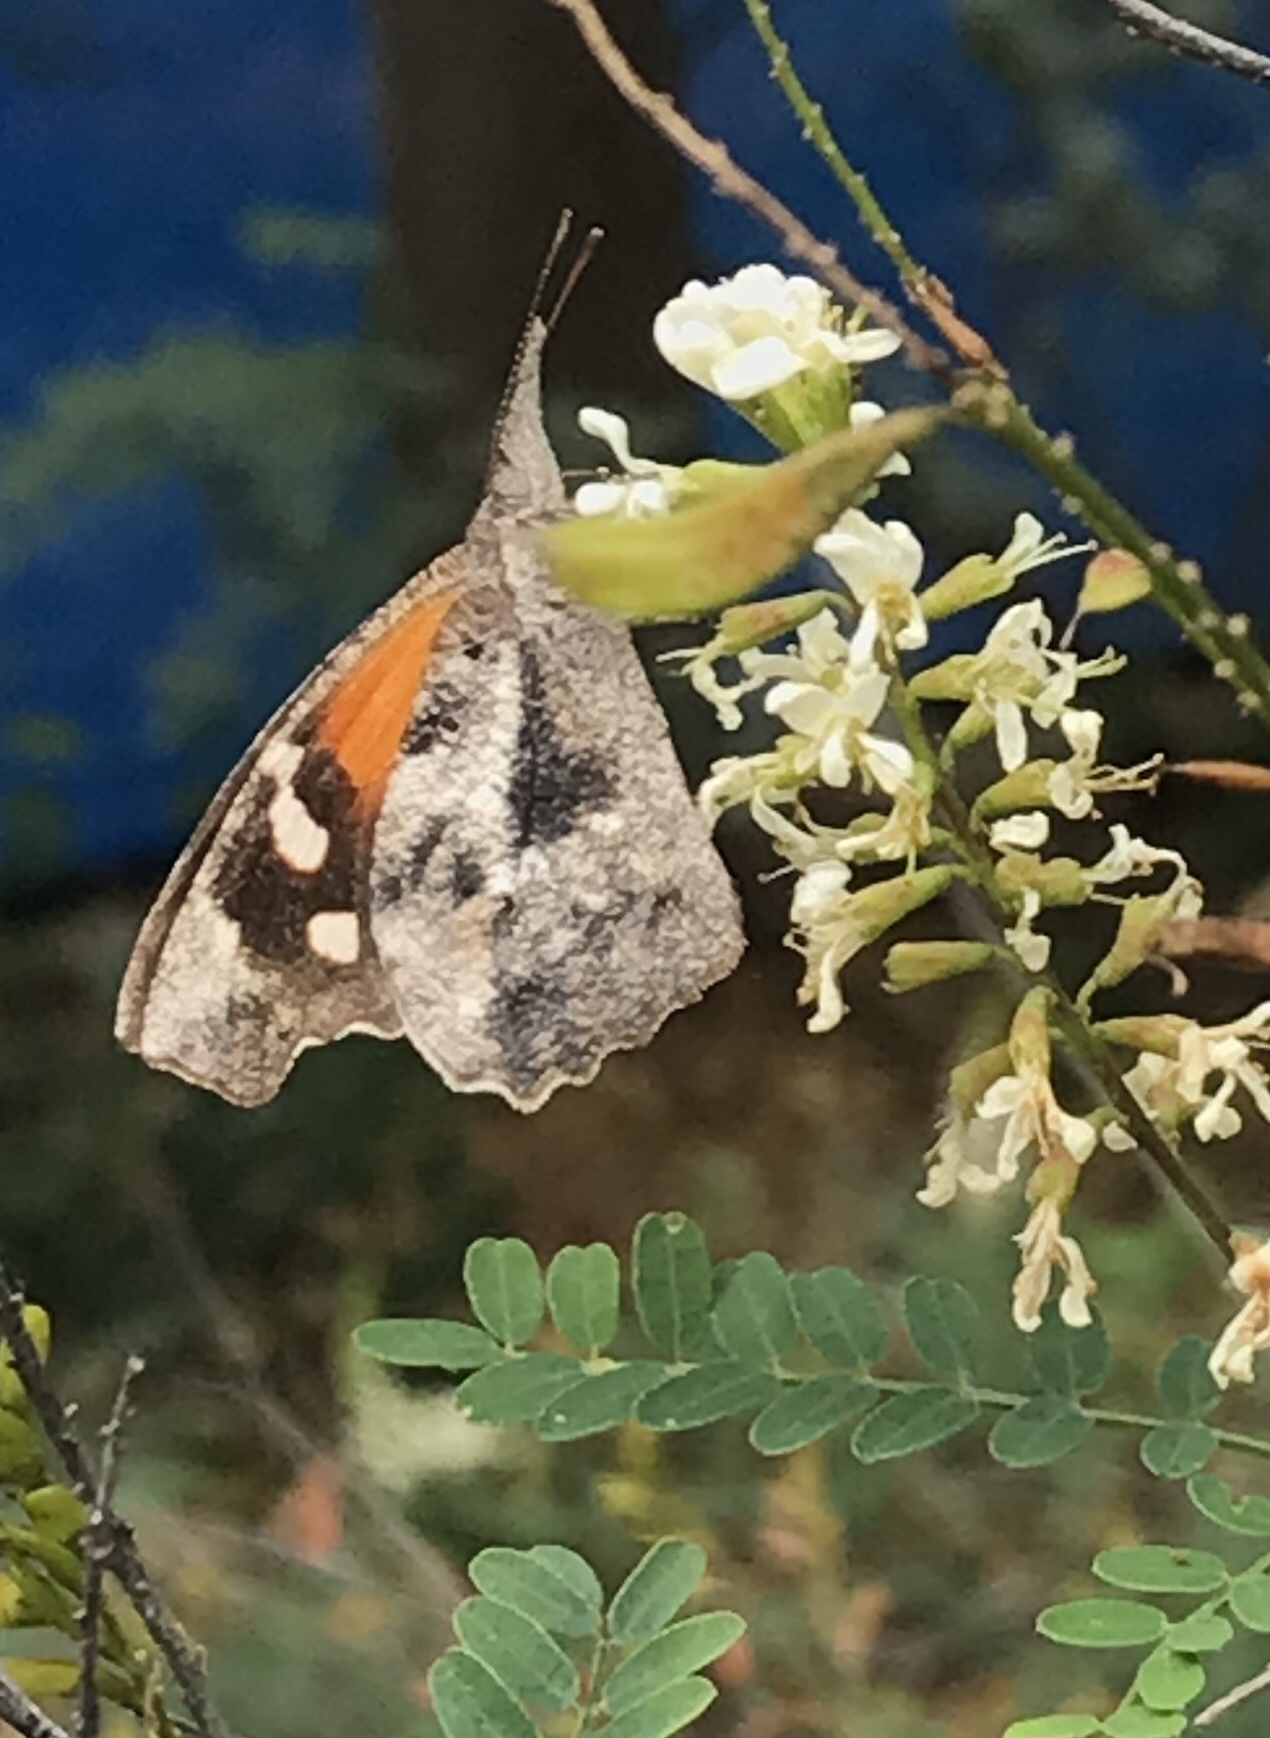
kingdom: Animalia
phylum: Arthropoda
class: Insecta
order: Lepidoptera
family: Nymphalidae
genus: Libytheana
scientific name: Libytheana carinenta
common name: American snout
